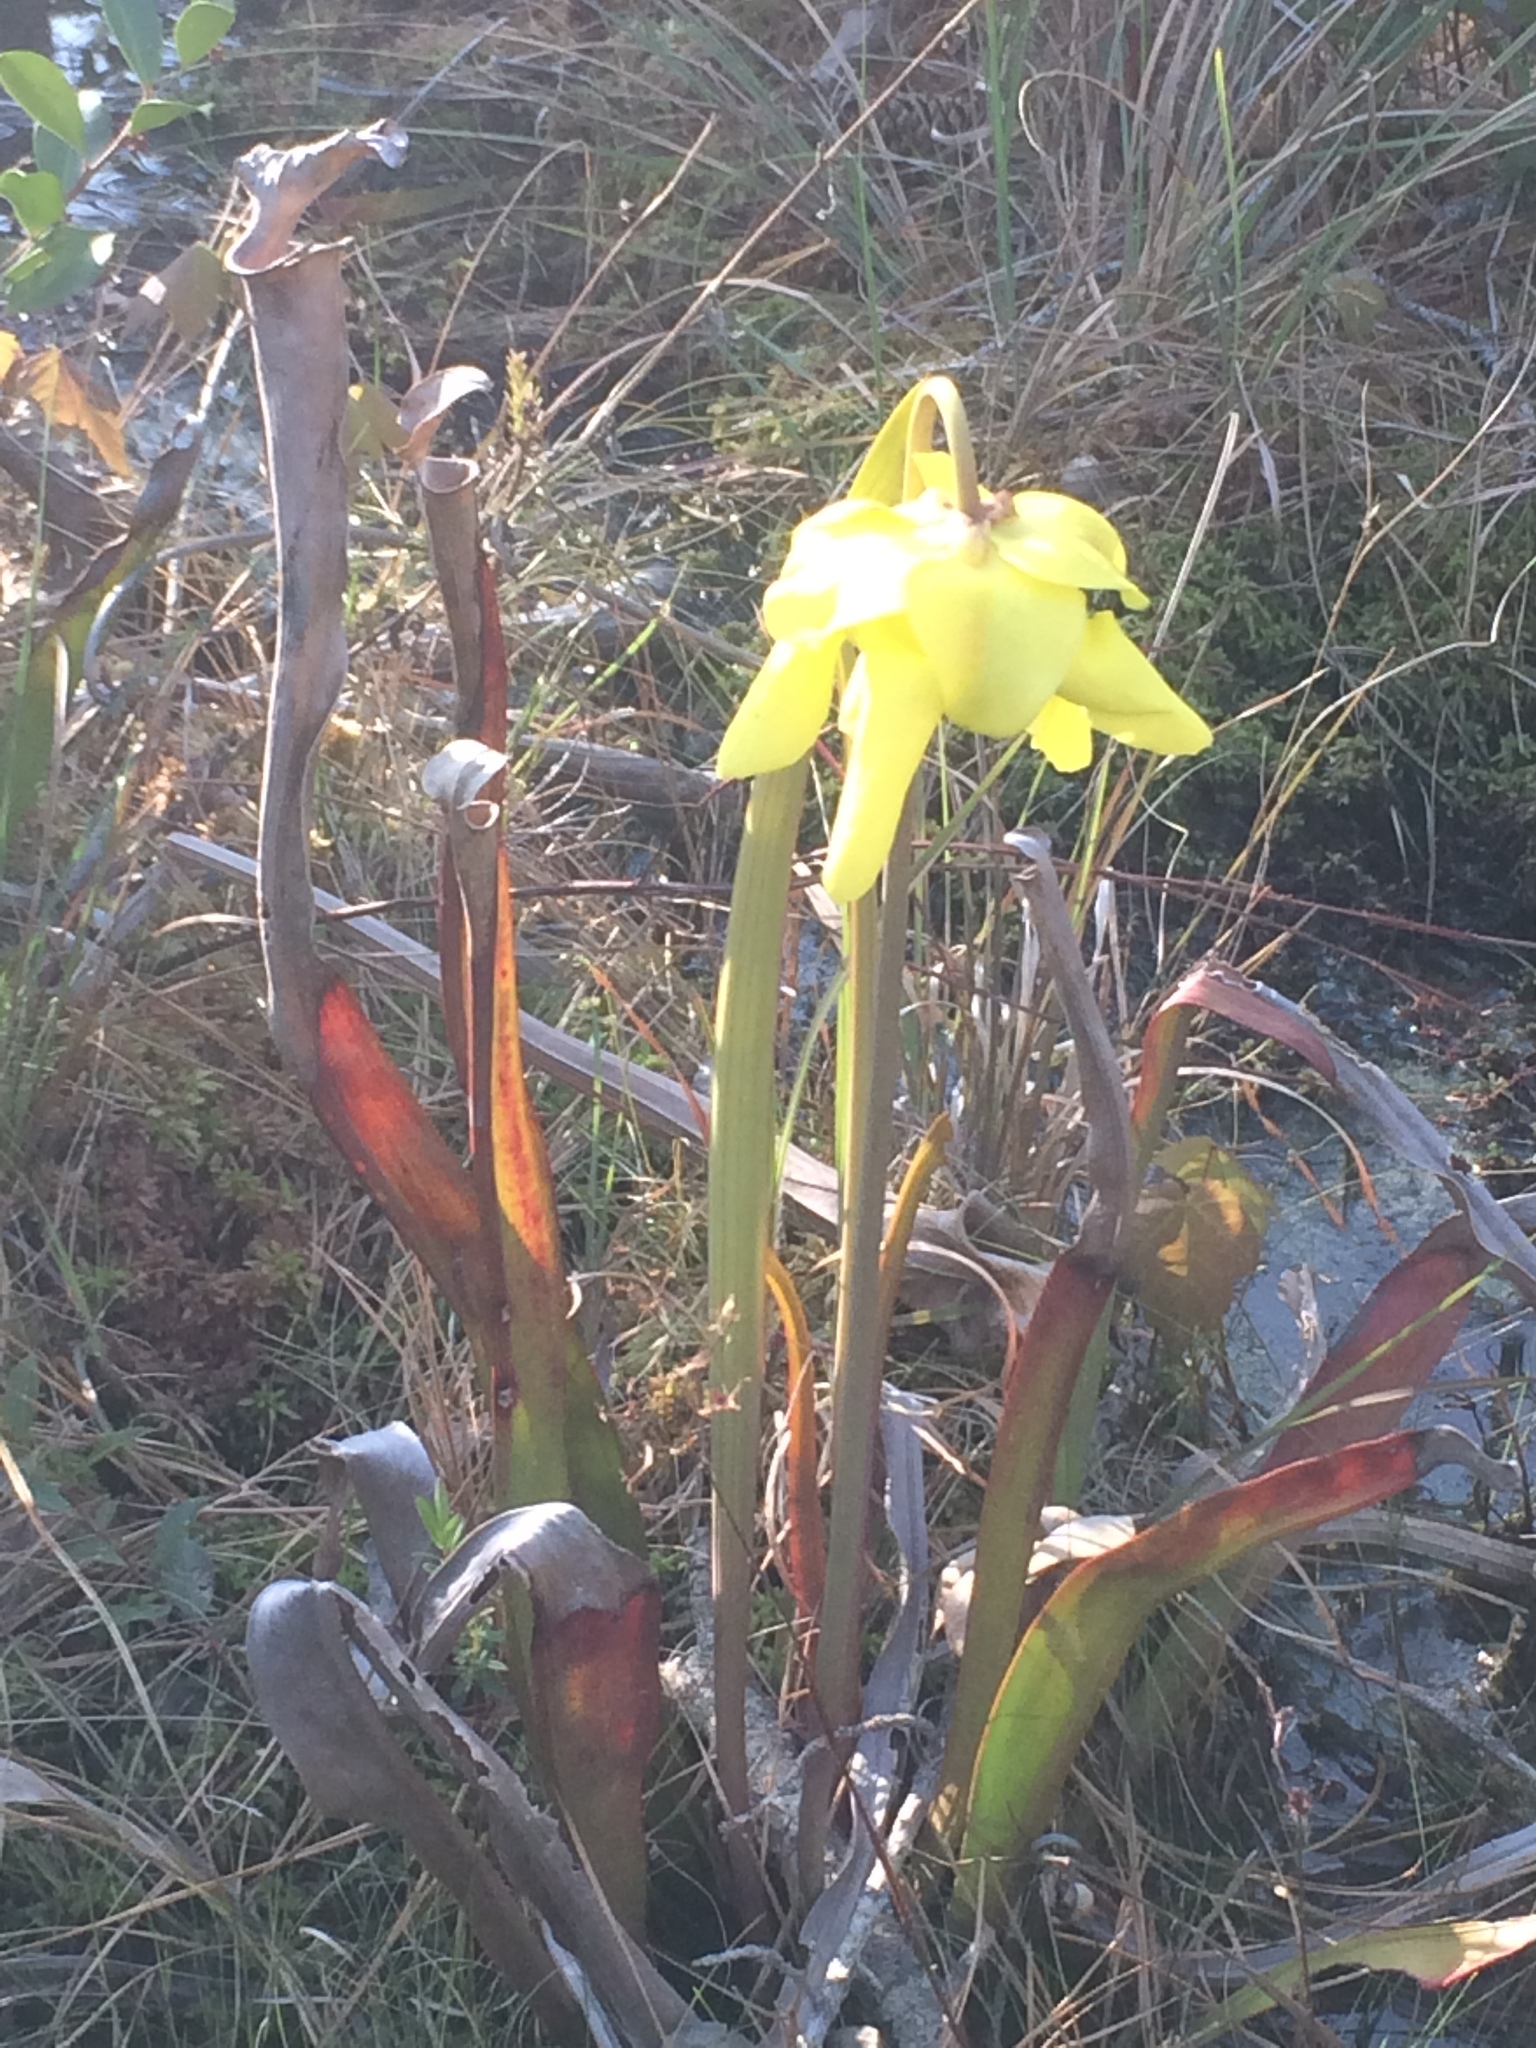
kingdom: Plantae
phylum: Tracheophyta
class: Magnoliopsida
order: Ericales
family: Sarraceniaceae
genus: Sarracenia
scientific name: Sarracenia flava
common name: Trumpets
